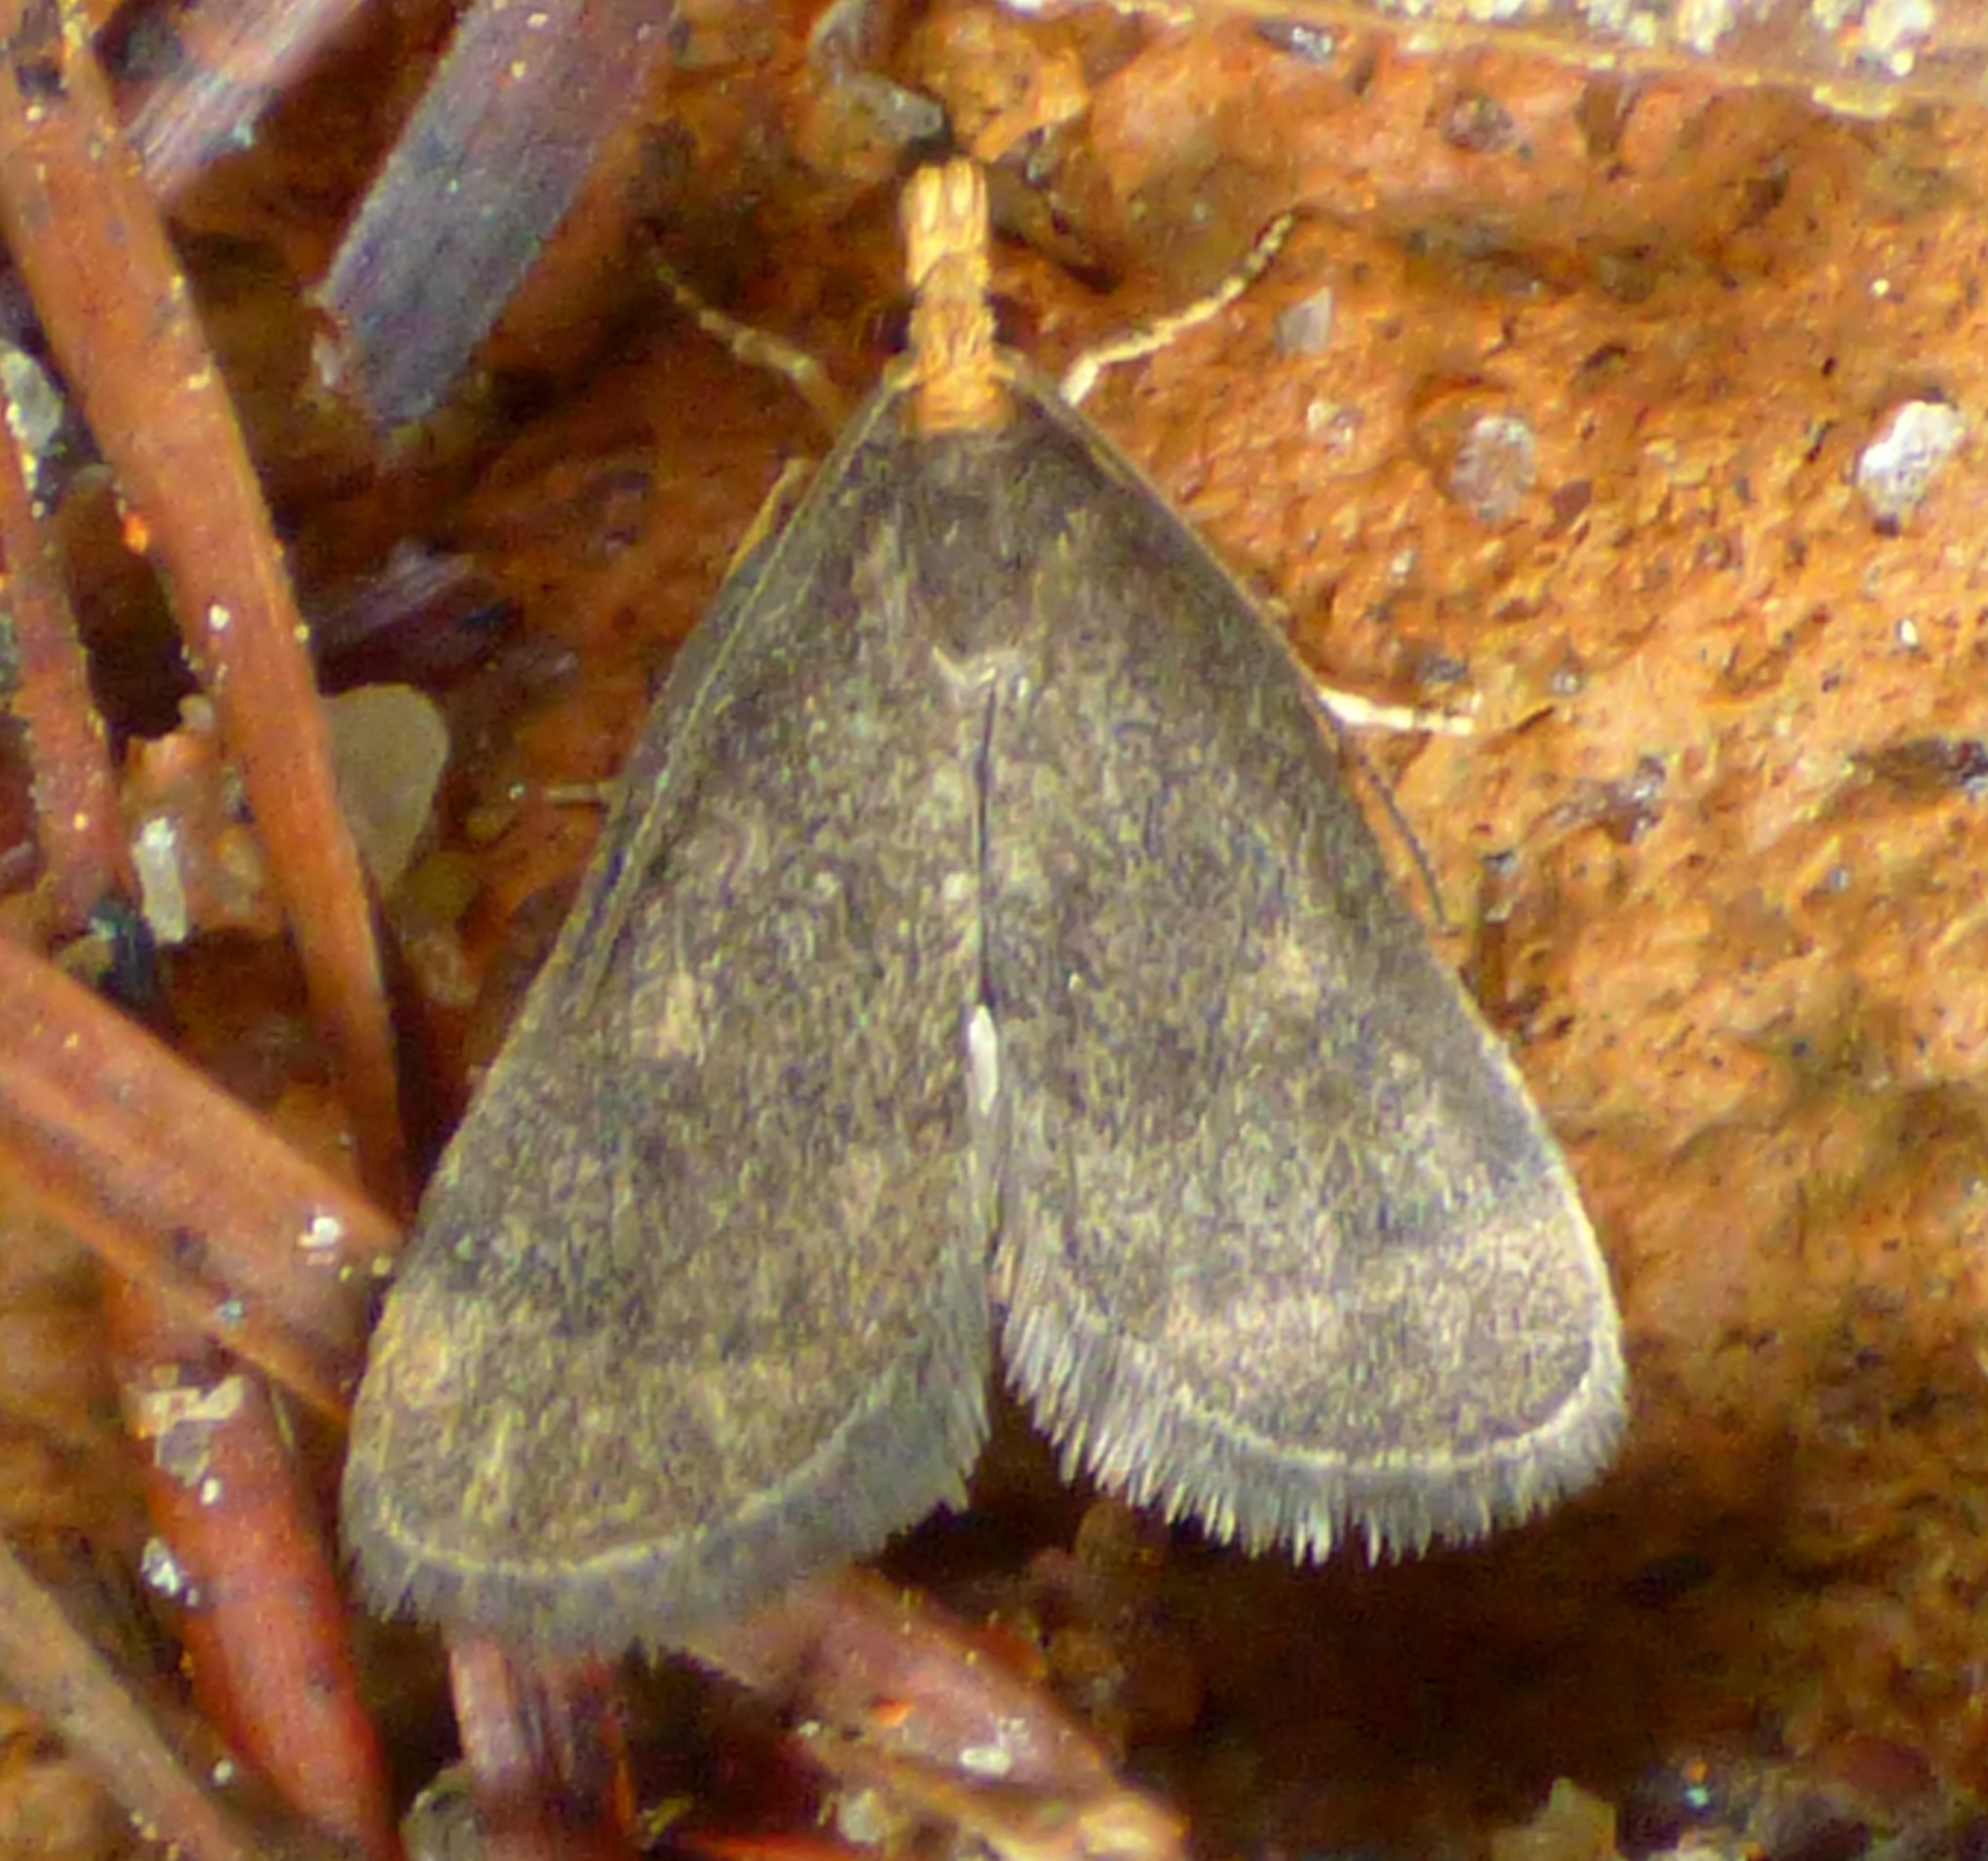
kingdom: Animalia
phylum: Arthropoda
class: Insecta
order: Lepidoptera
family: Crambidae
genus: Pyrausta
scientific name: Pyrausta merrickalis
